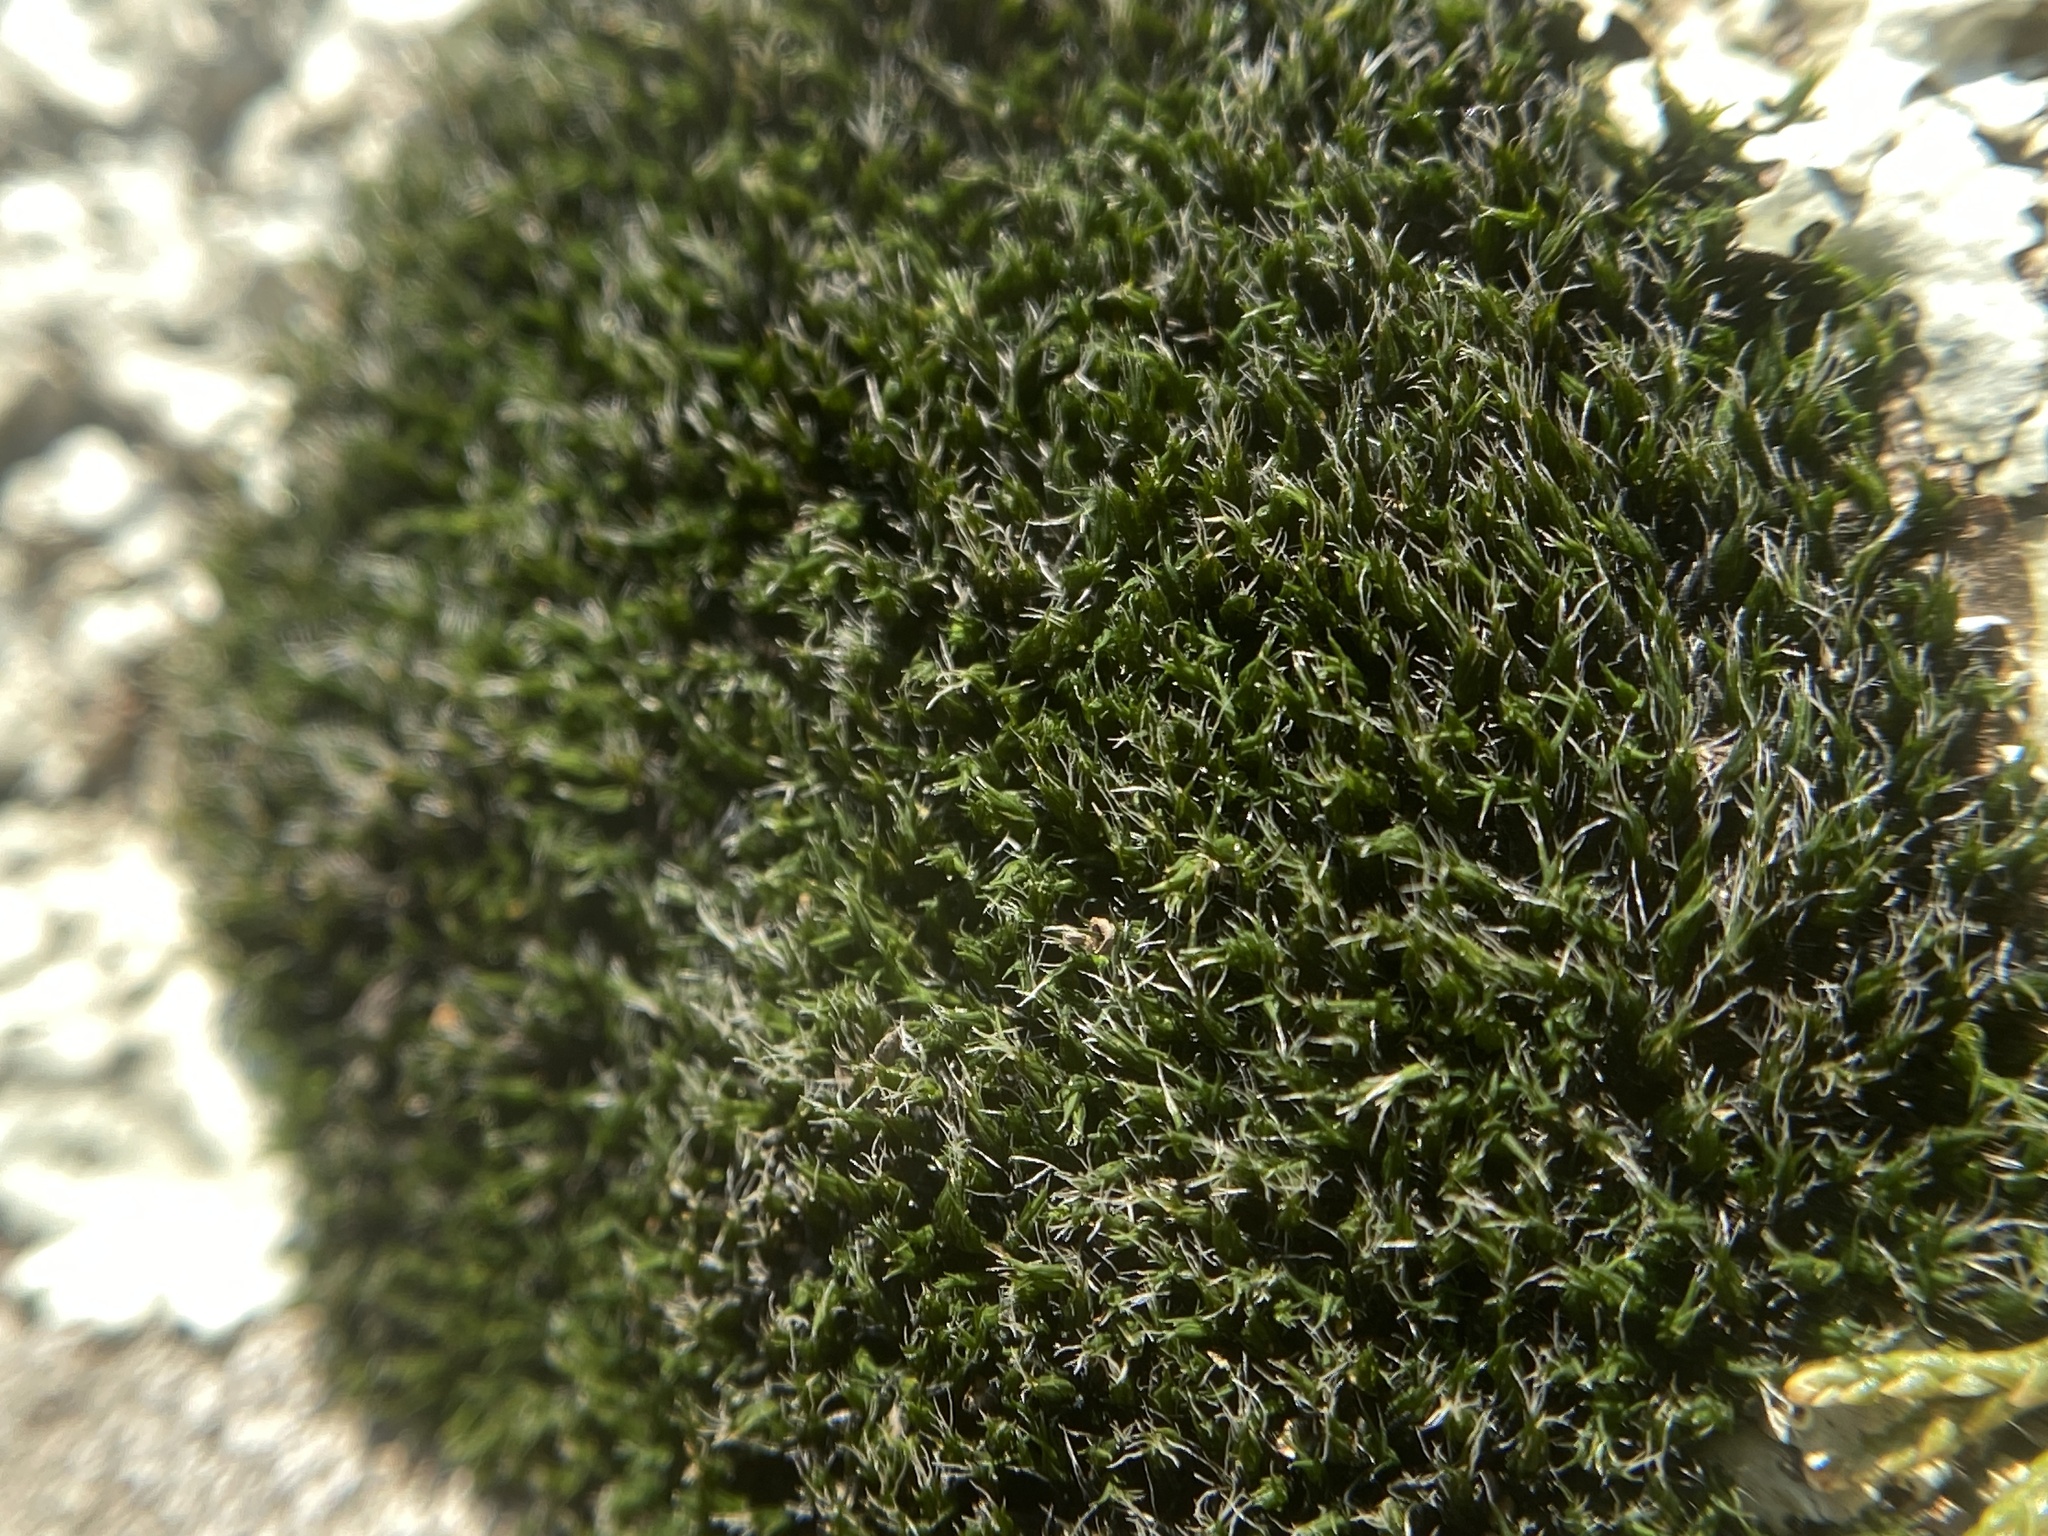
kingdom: Plantae
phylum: Bryophyta
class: Bryopsida
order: Grimmiales
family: Grimmiaceae
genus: Grimmia
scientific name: Grimmia pulvinata
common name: Grey-cushioned grimmia
